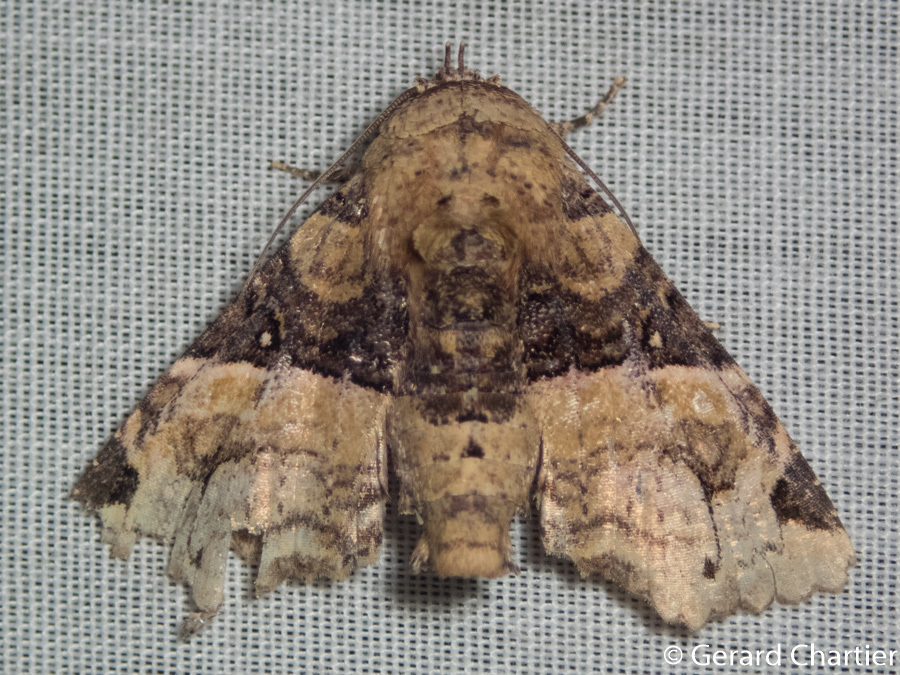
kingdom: Animalia
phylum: Arthropoda
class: Insecta
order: Lepidoptera
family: Euteliidae
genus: Targalla
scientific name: Targalla atripars
